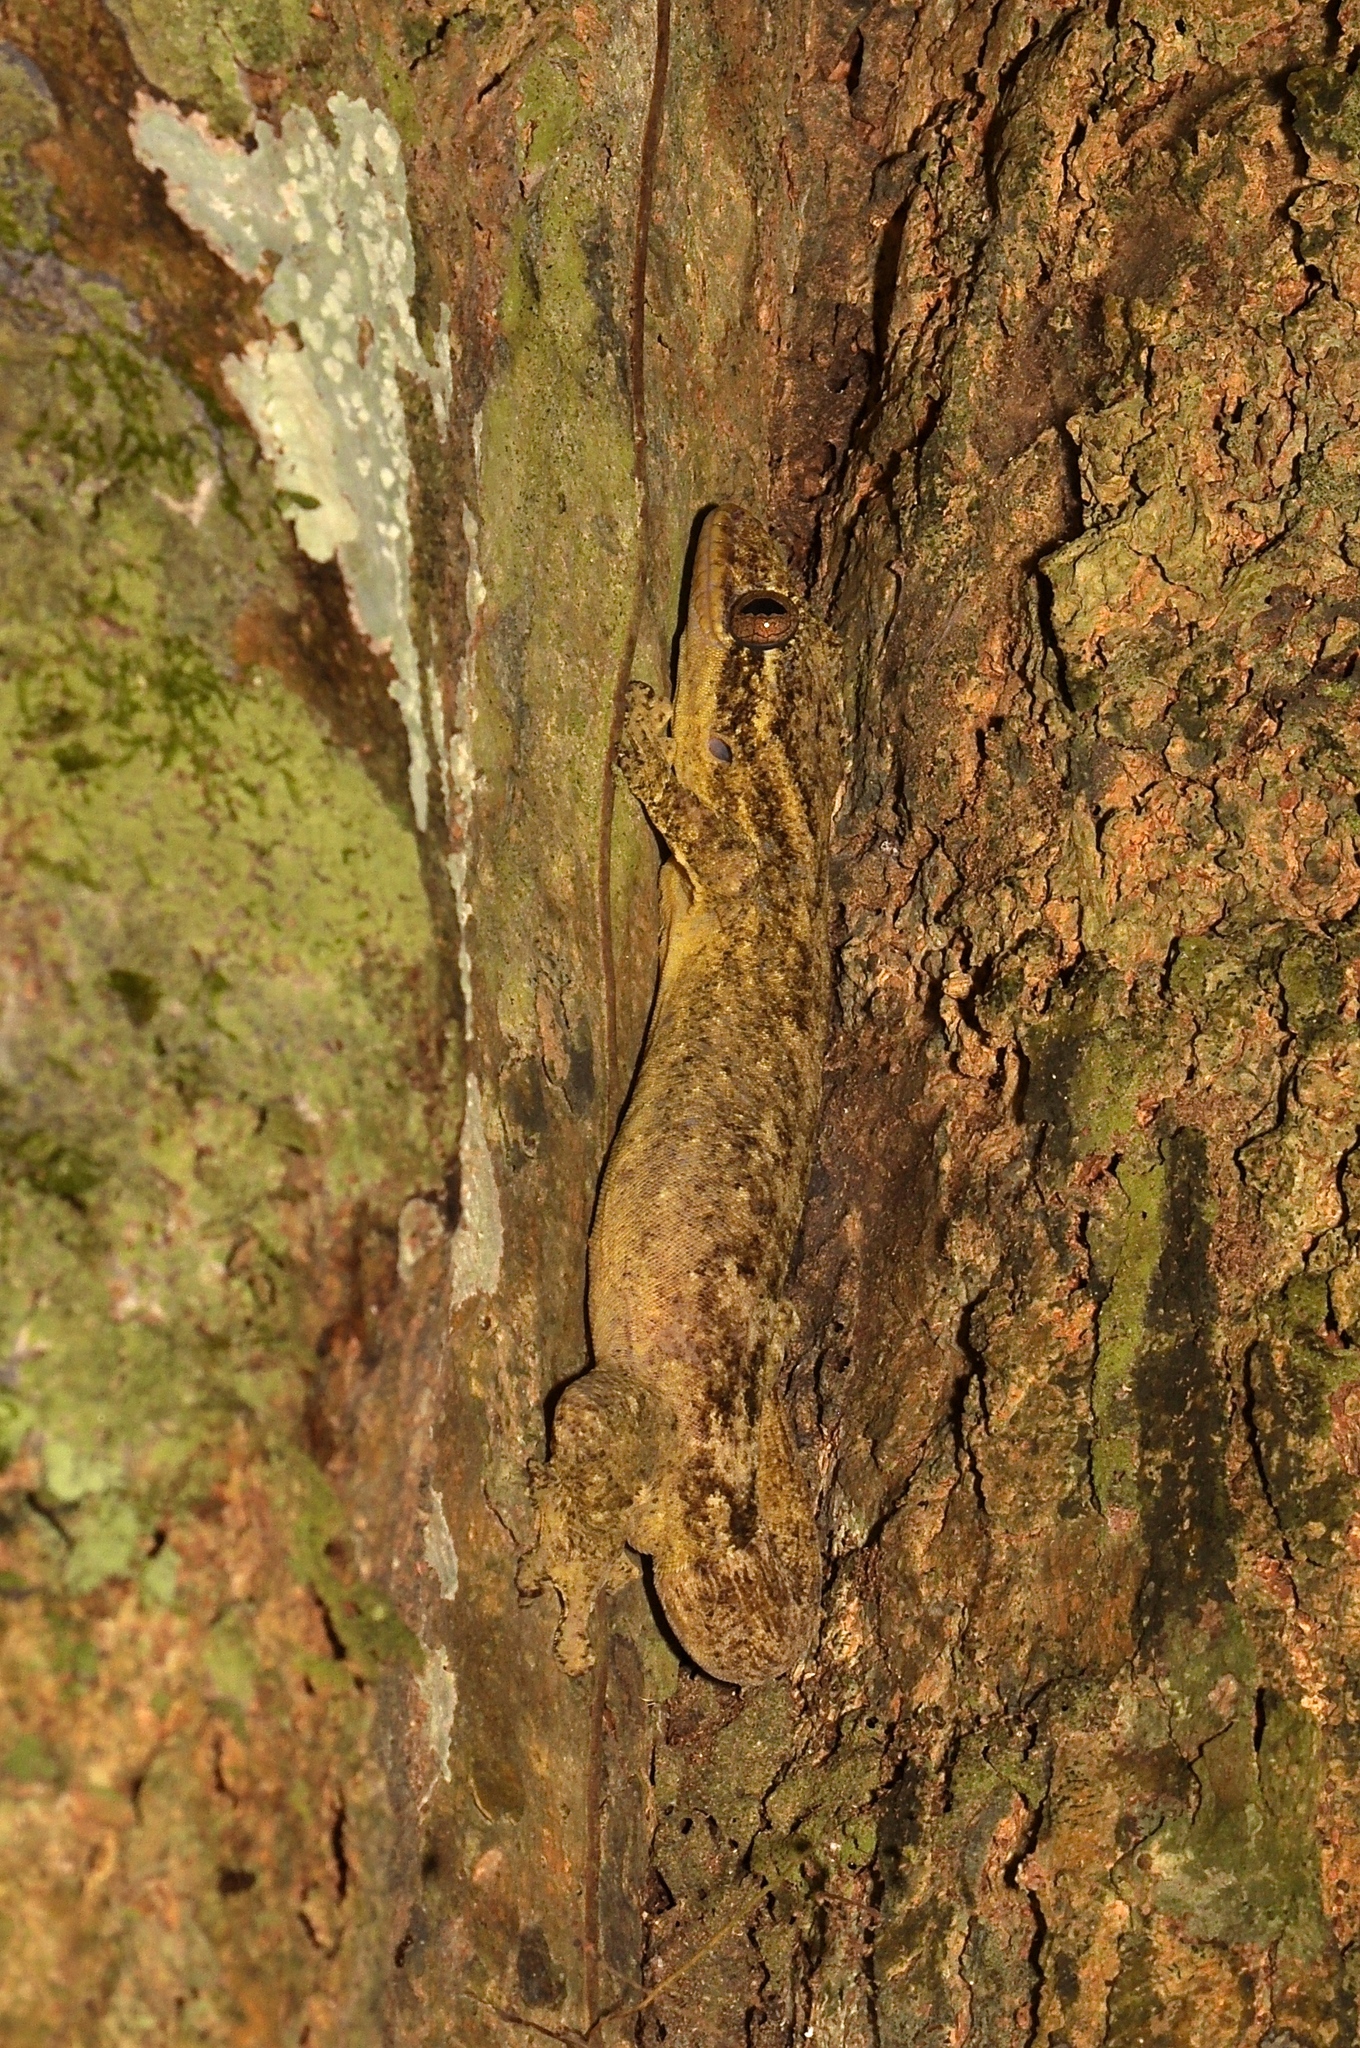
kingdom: Animalia
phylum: Chordata
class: Squamata
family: Phyllodactylidae
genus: Thecadactylus
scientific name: Thecadactylus solimoensis
